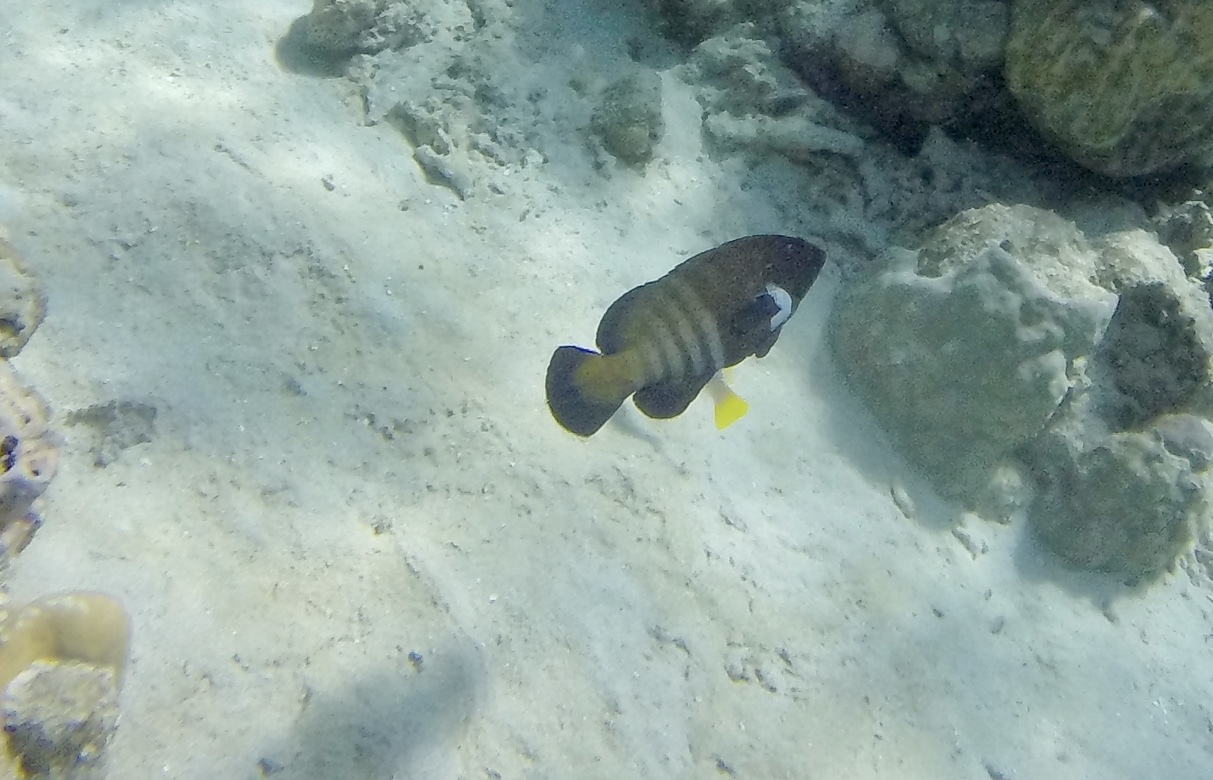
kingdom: Animalia
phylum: Chordata
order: Perciformes
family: Serranidae
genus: Cephalopholis
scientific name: Cephalopholis argus
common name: Peacock grouper
